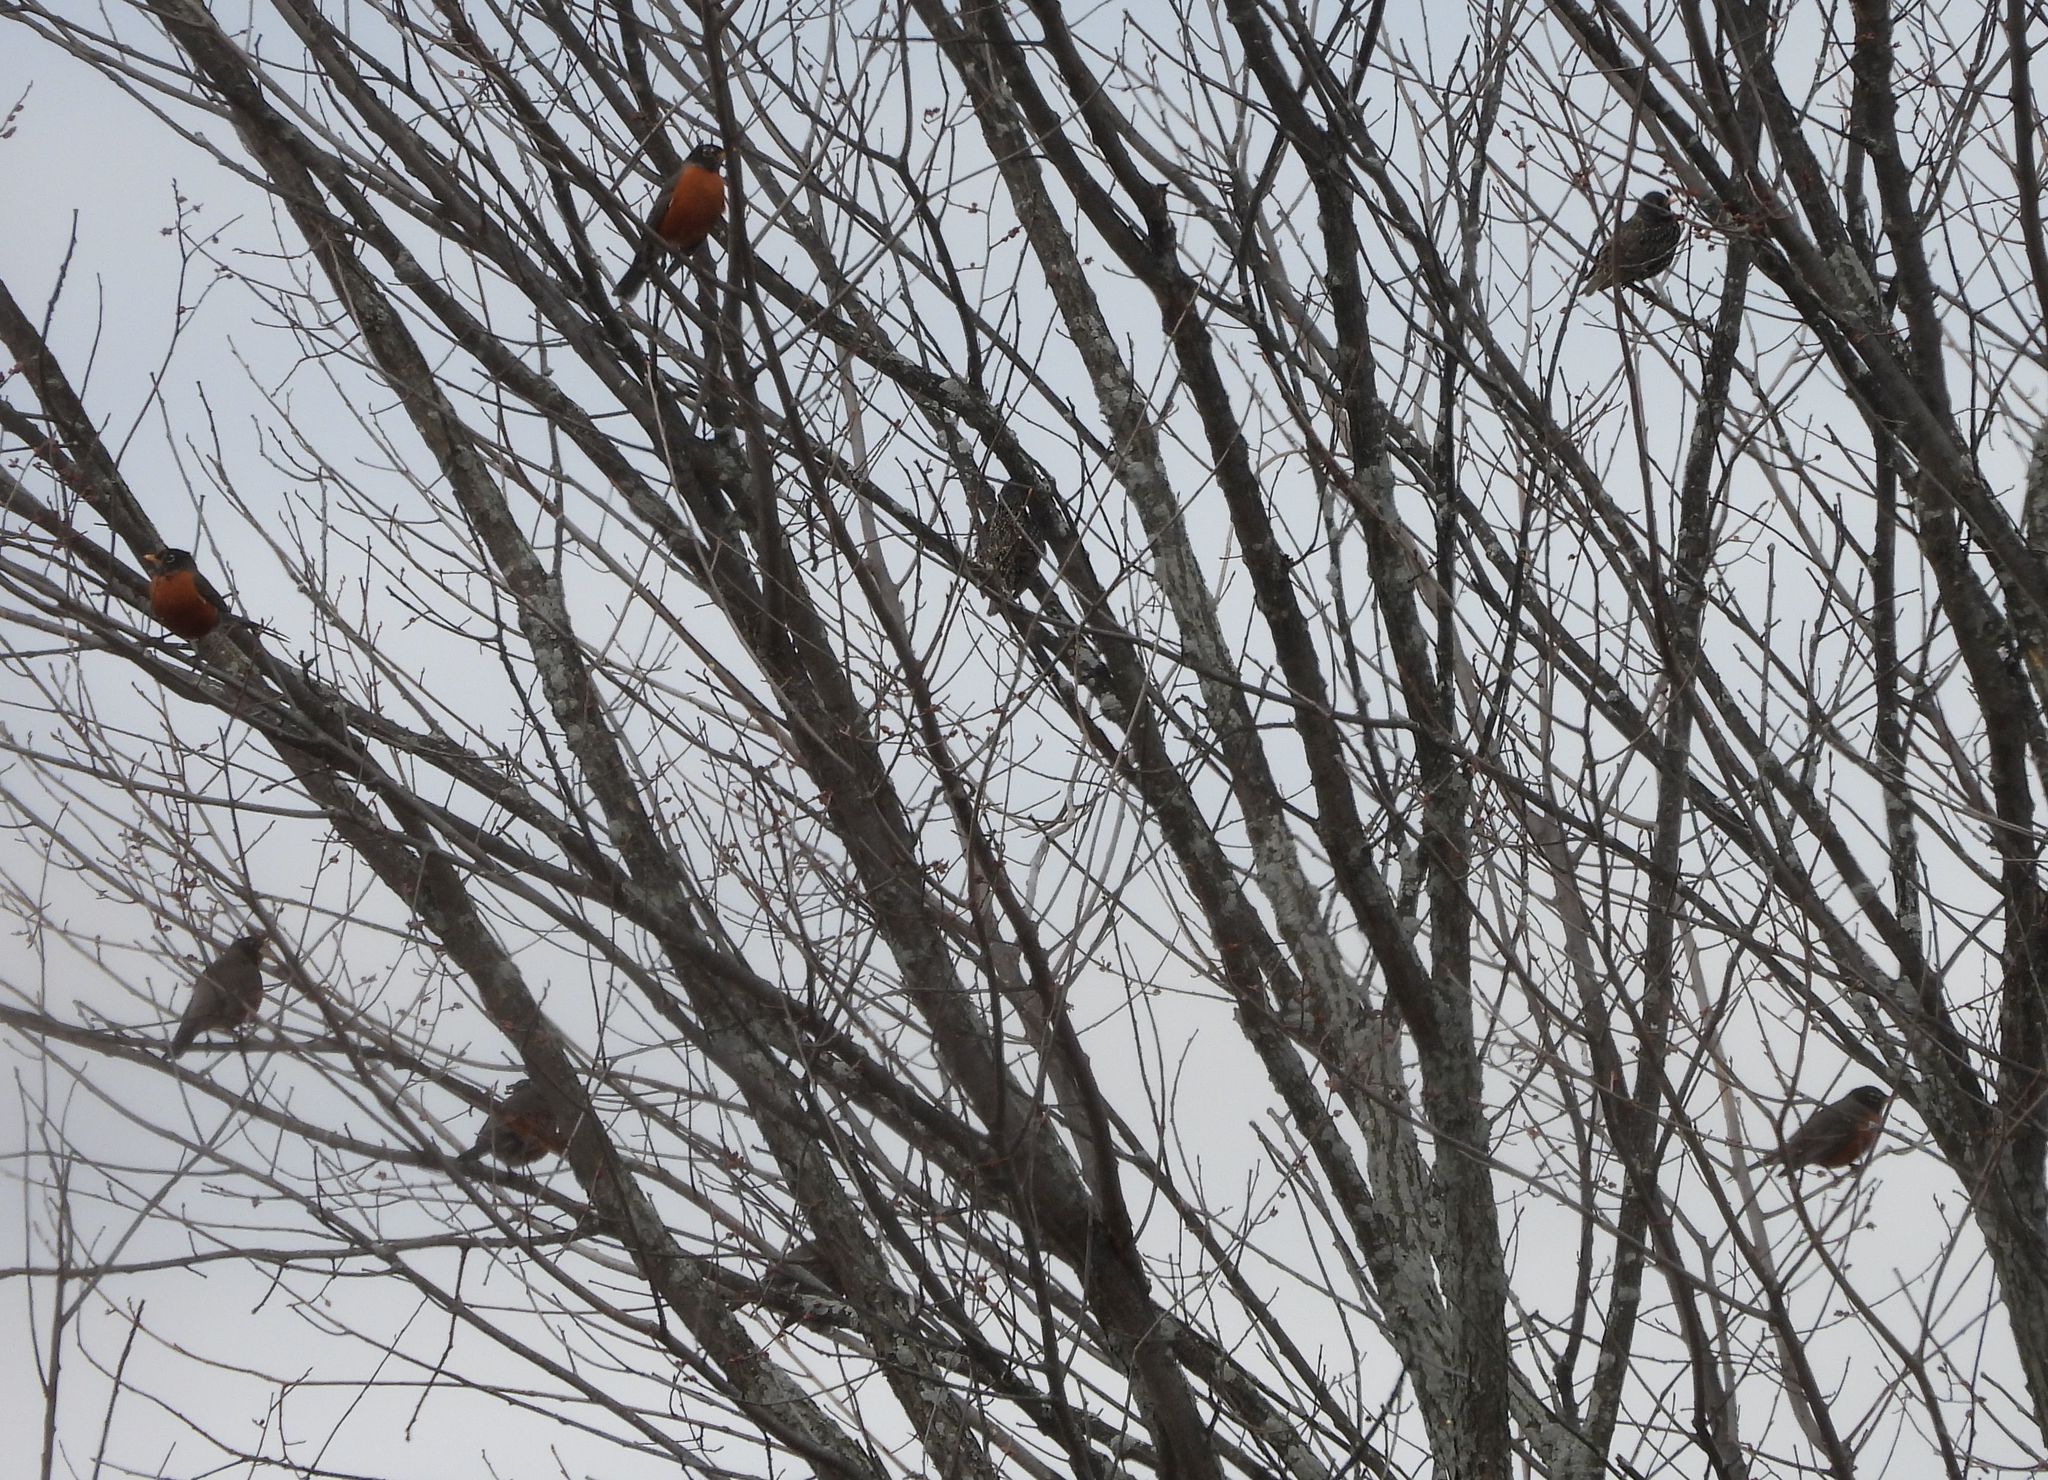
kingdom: Animalia
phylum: Chordata
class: Aves
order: Passeriformes
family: Turdidae
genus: Turdus
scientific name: Turdus migratorius
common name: American robin
